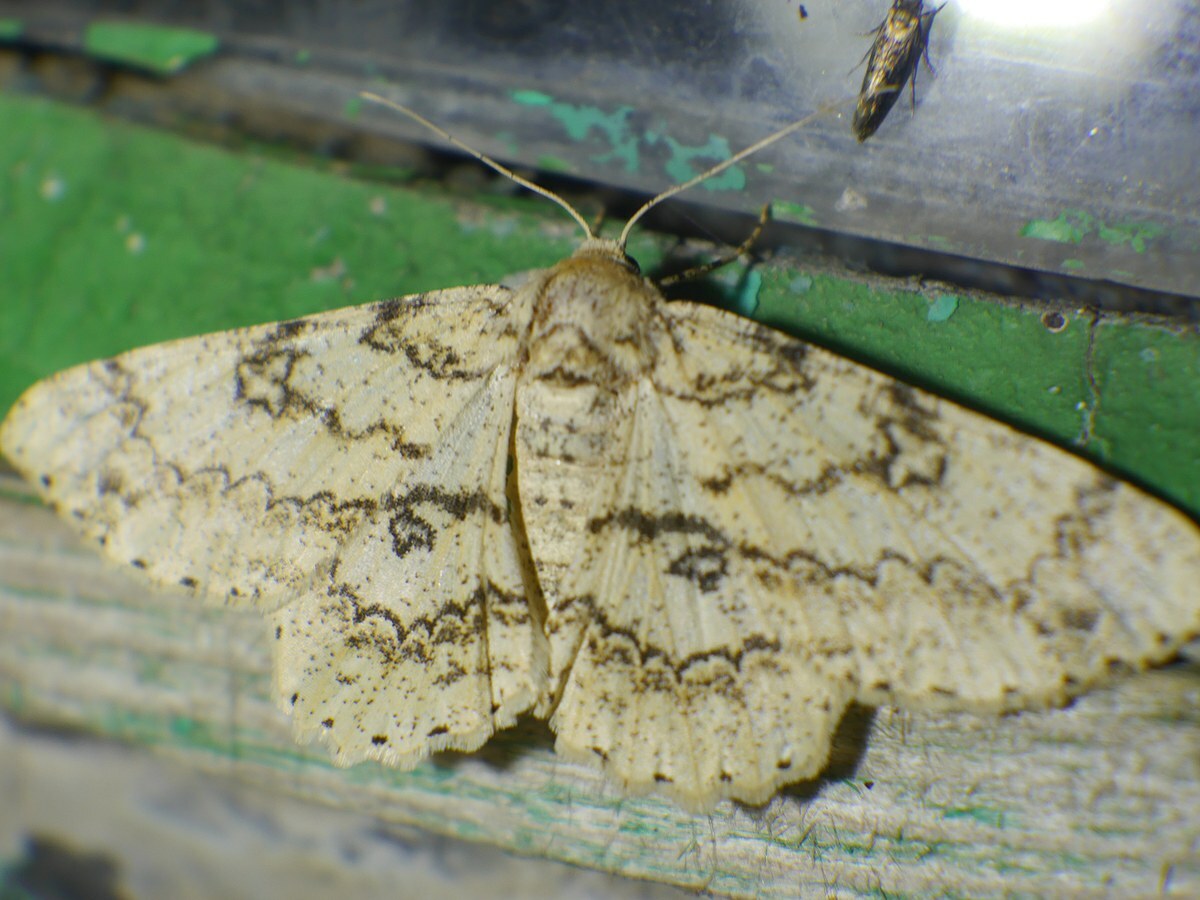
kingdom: Animalia
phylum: Arthropoda
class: Insecta
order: Lepidoptera
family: Geometridae
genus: Ascotis
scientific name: Ascotis selenaria
